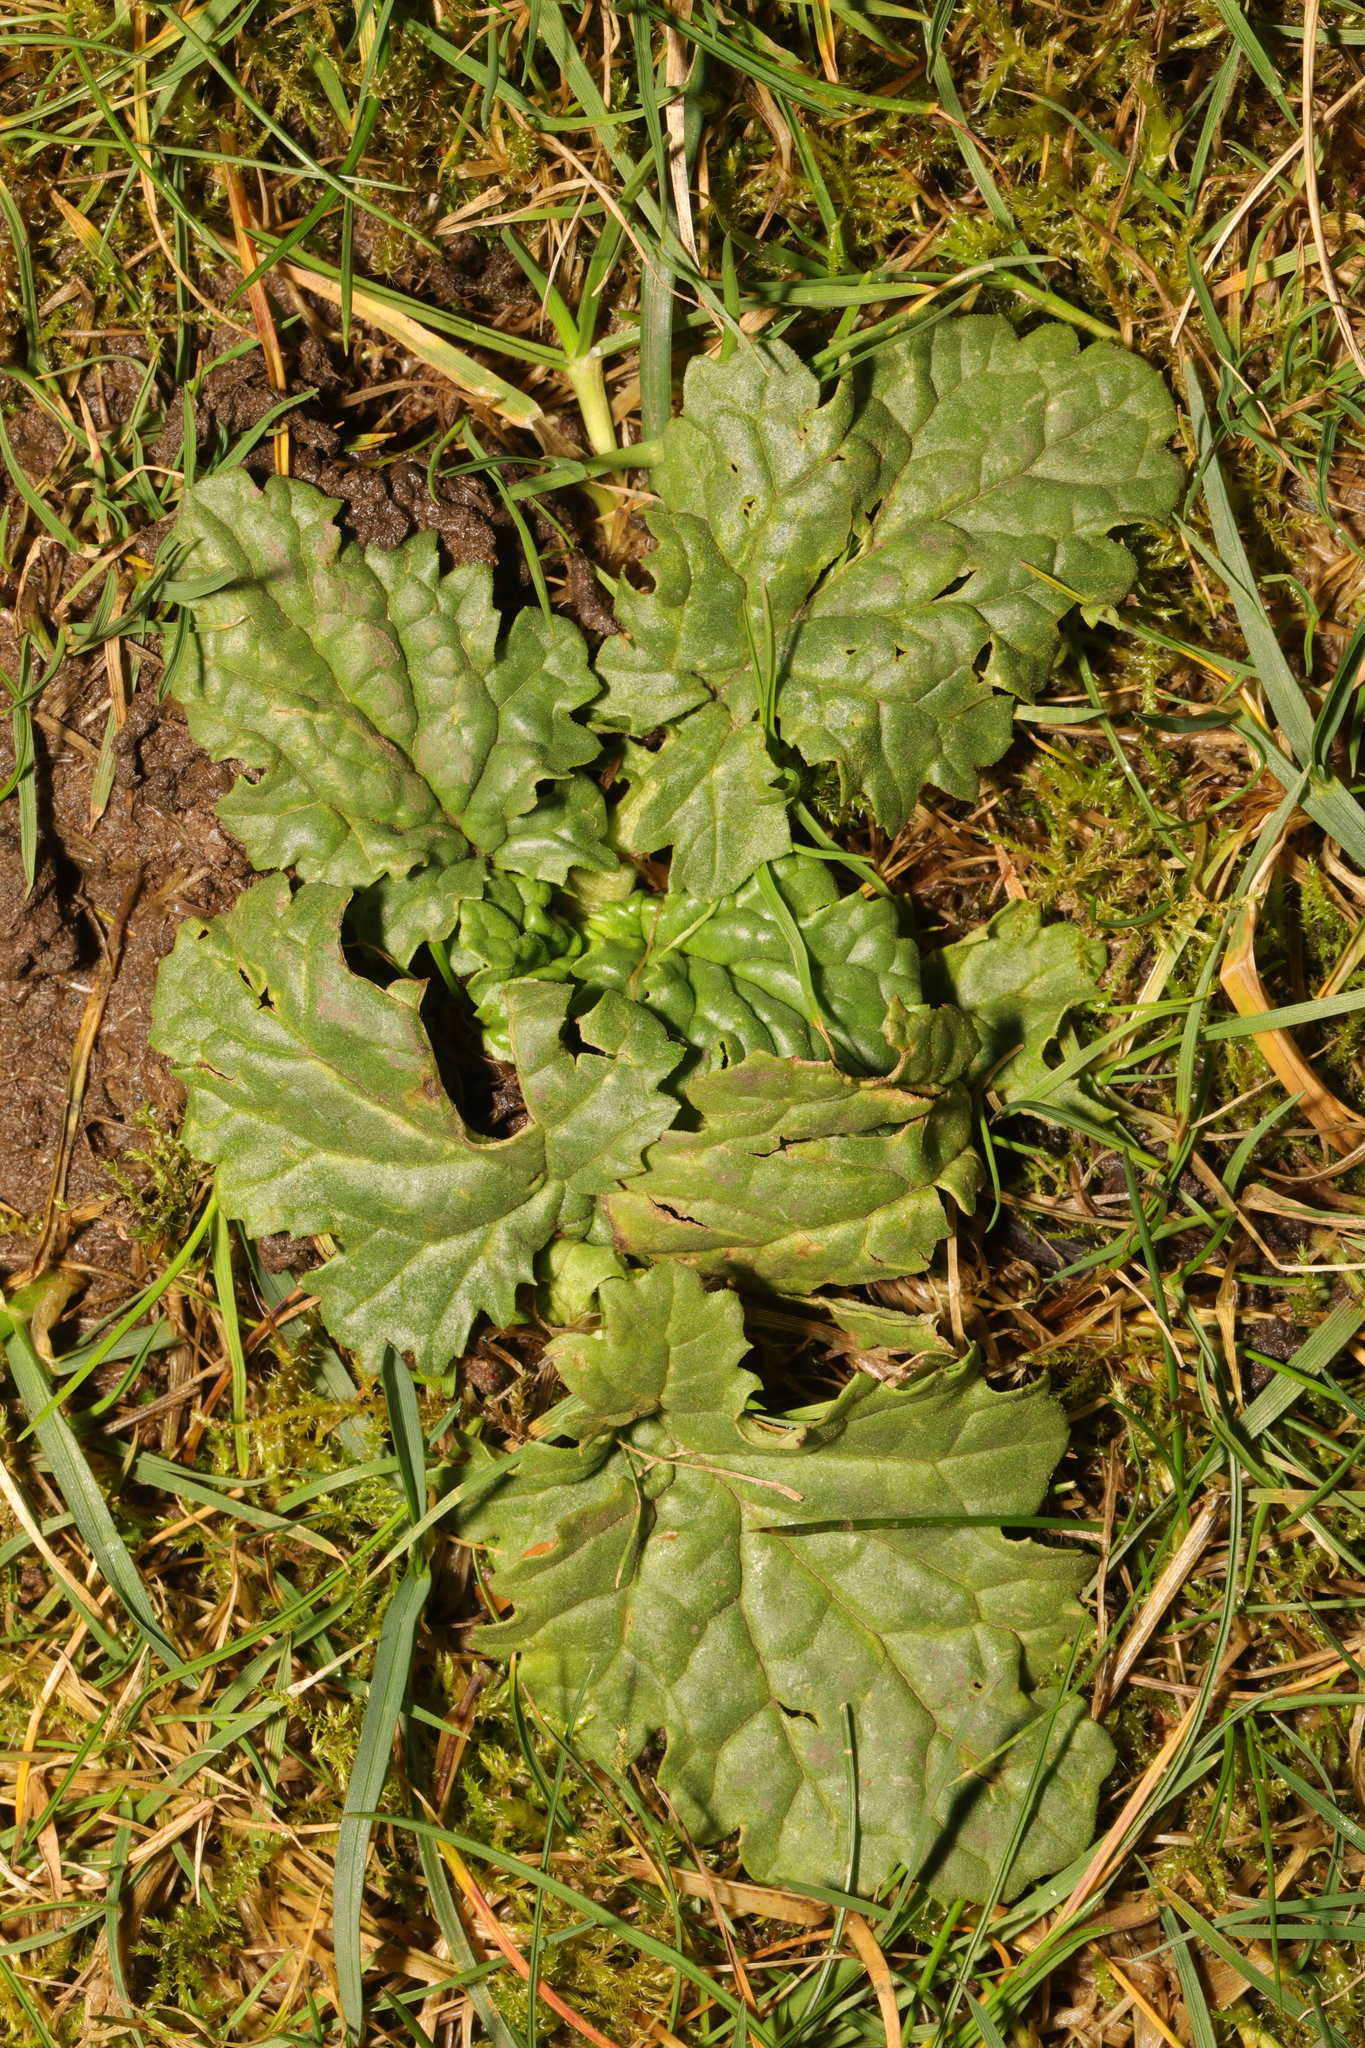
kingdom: Plantae
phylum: Tracheophyta
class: Magnoliopsida
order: Asterales
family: Asteraceae
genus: Jacobaea
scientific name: Jacobaea vulgaris
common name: Stinking willie
